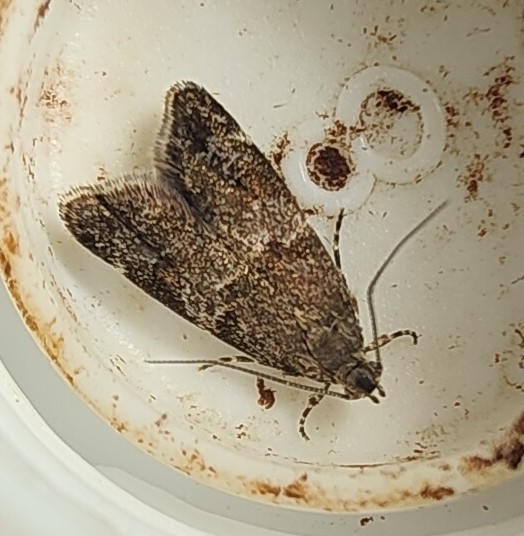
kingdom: Animalia
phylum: Arthropoda
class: Insecta
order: Lepidoptera
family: Oecophoridae
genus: Gymnobathra
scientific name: Gymnobathra omphalota
